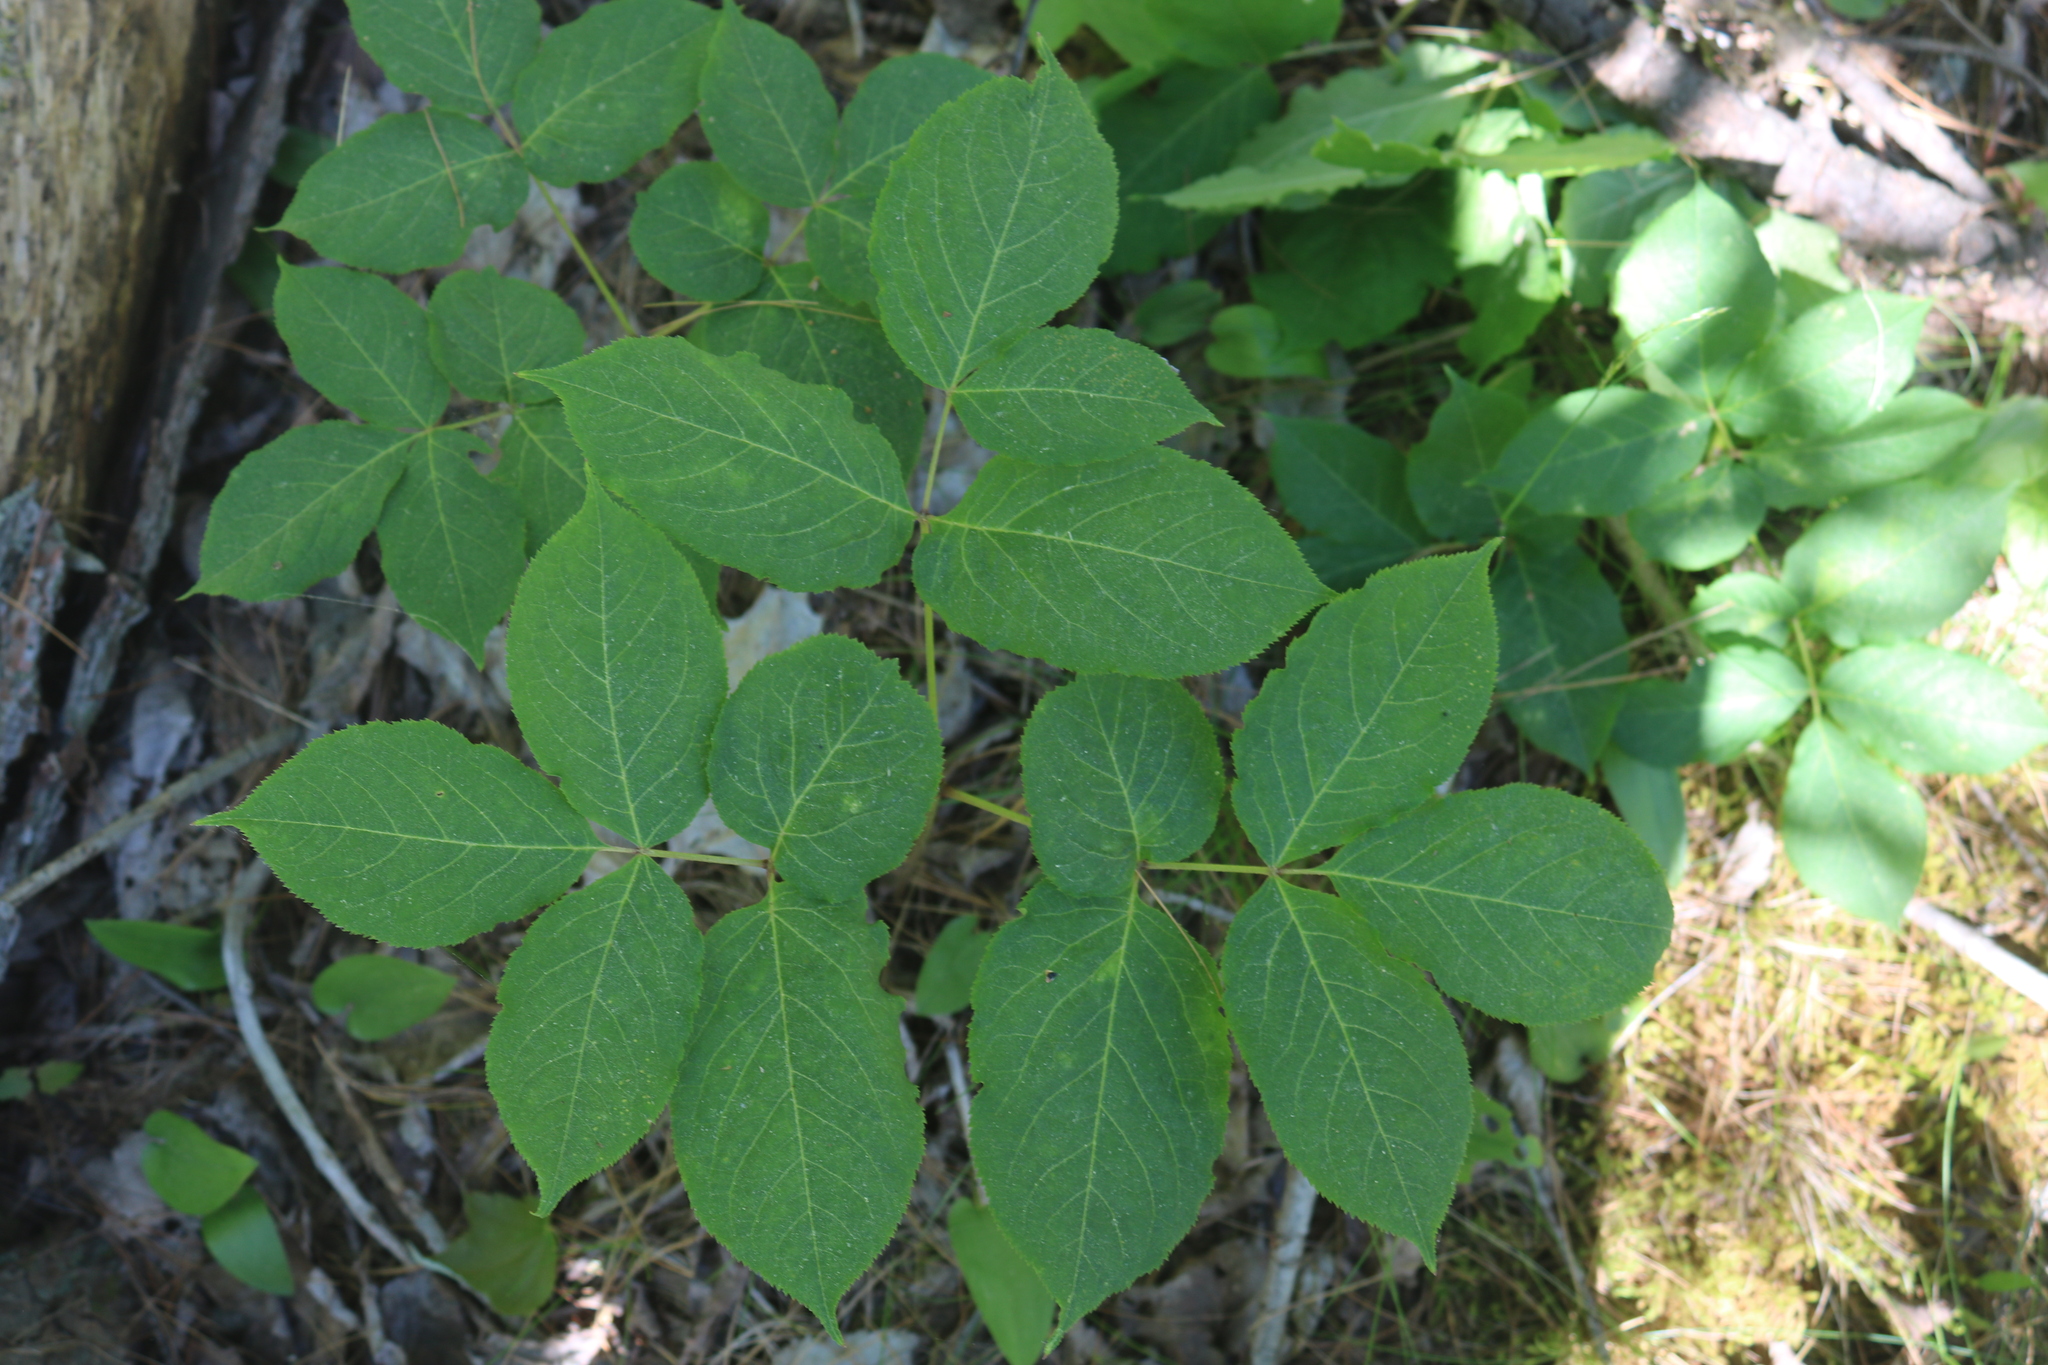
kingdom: Plantae
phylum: Tracheophyta
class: Magnoliopsida
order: Apiales
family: Araliaceae
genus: Aralia
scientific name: Aralia nudicaulis
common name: Wild sarsaparilla
